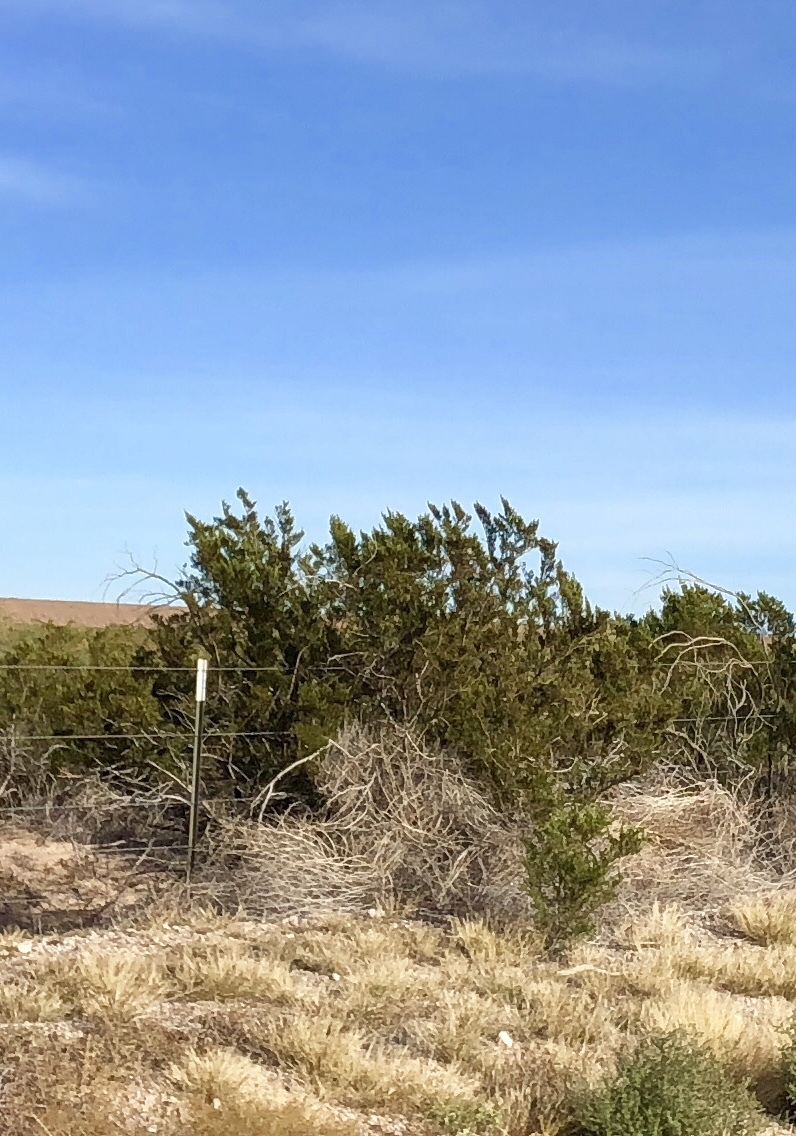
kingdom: Plantae
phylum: Tracheophyta
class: Magnoliopsida
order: Zygophyllales
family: Zygophyllaceae
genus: Larrea
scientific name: Larrea tridentata
